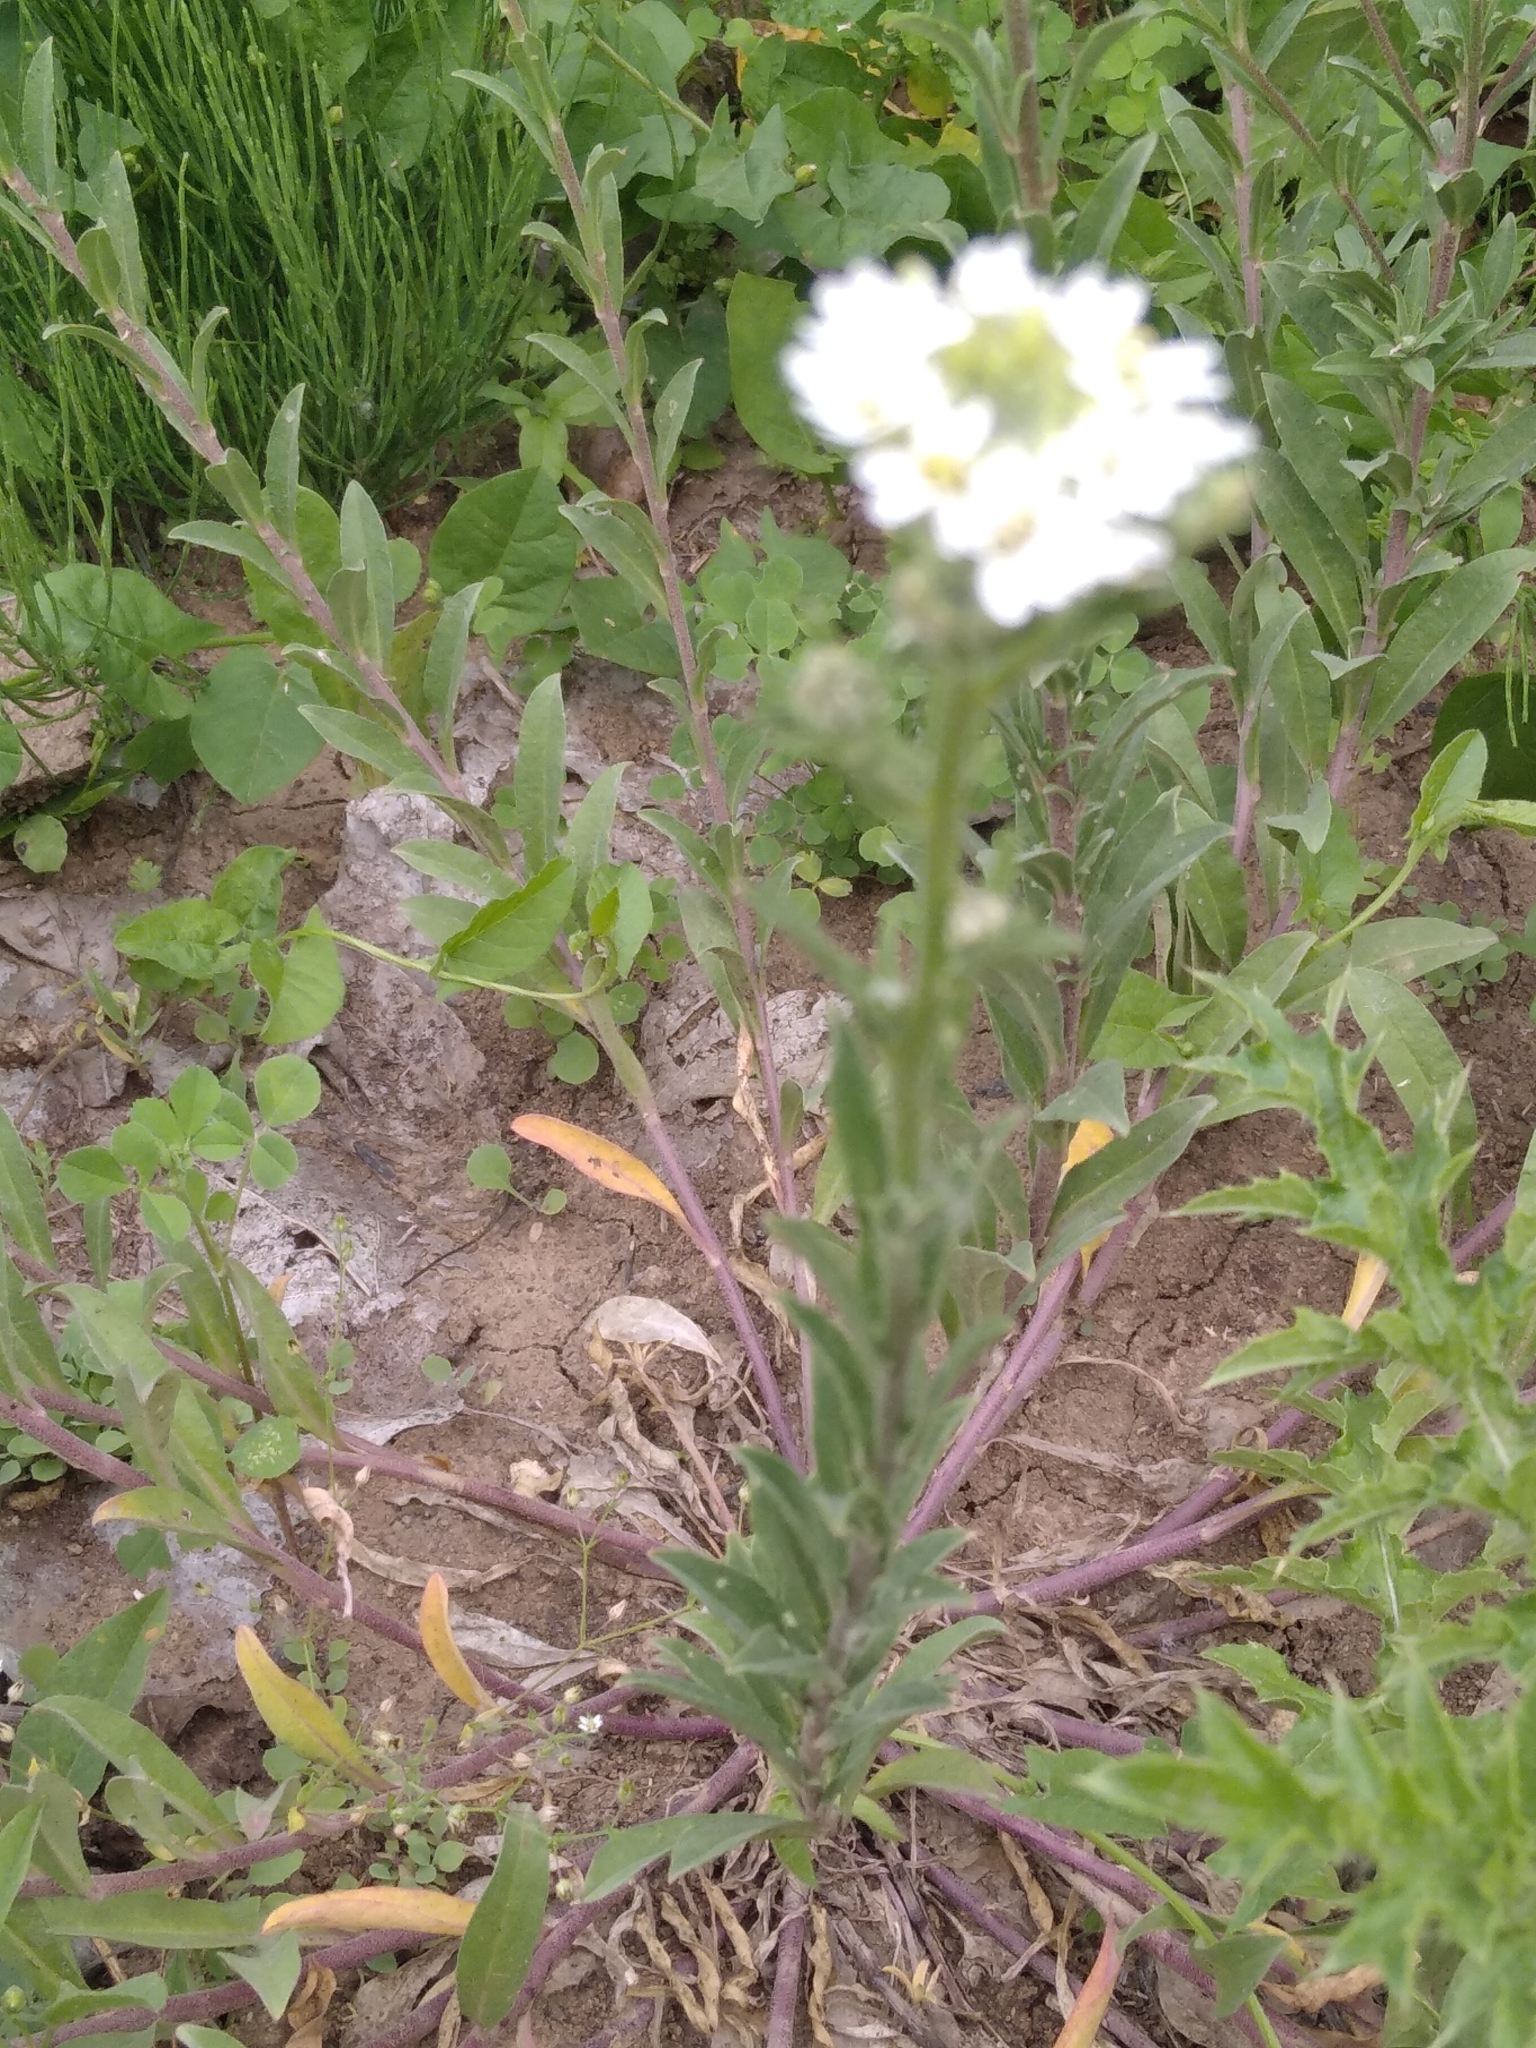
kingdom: Plantae
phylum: Tracheophyta
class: Magnoliopsida
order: Brassicales
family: Brassicaceae
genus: Berteroa
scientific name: Berteroa incana
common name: Hoary alison
